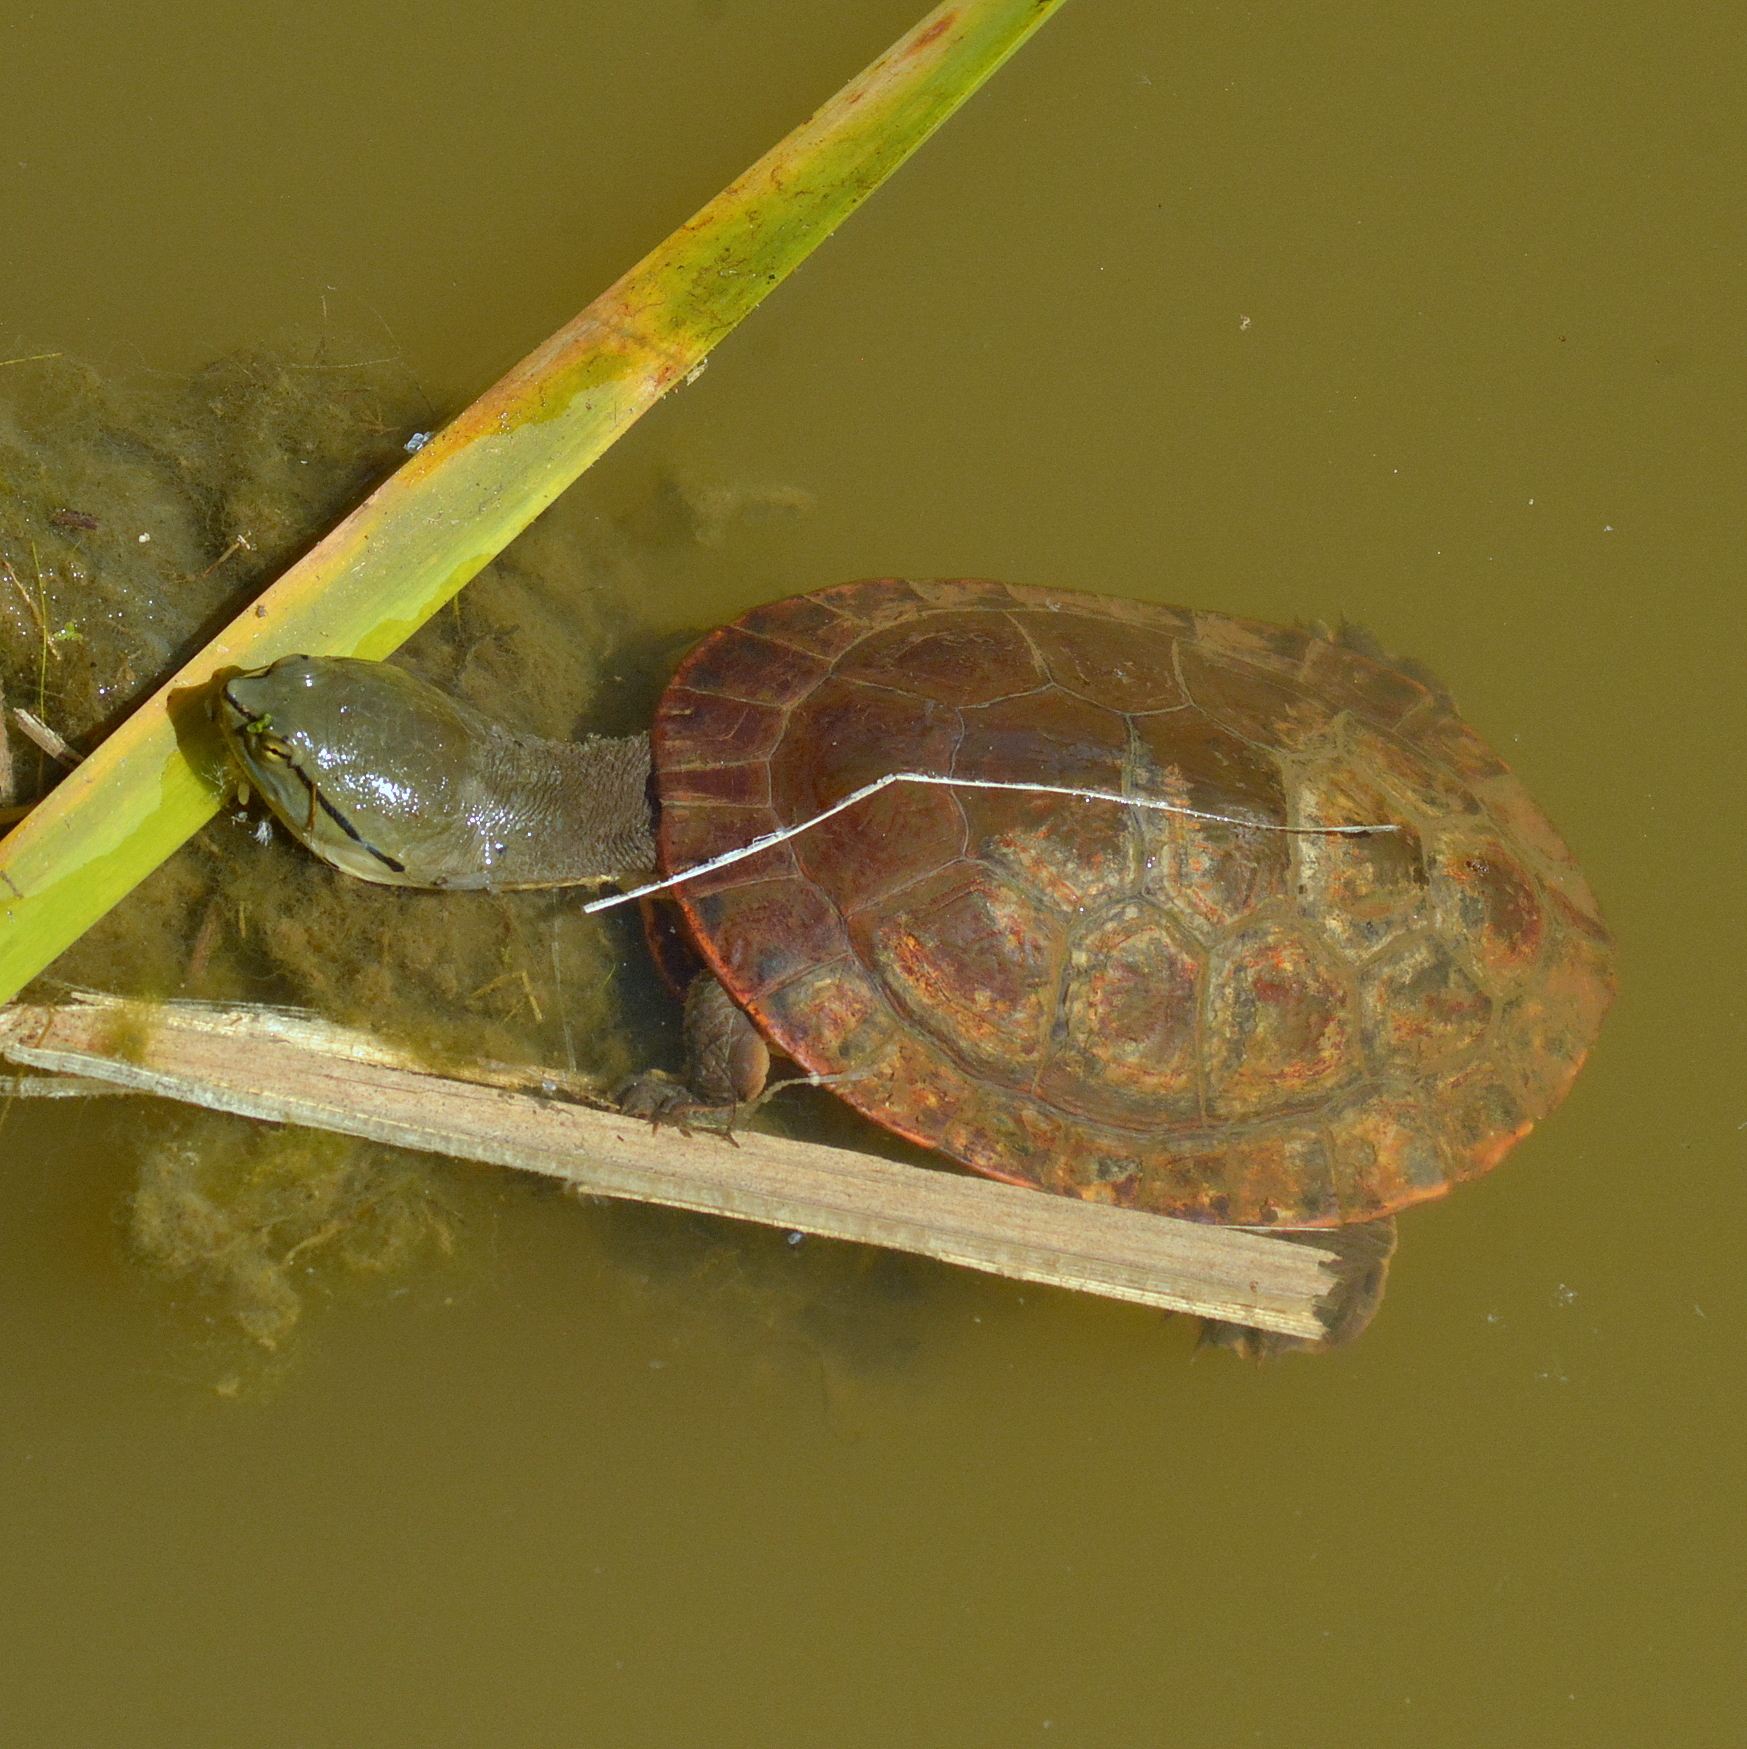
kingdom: Animalia
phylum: Chordata
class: Testudines
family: Chelidae
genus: Phrynops
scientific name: Phrynops hilarii
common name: Side-necked turtle of saint hillaire
